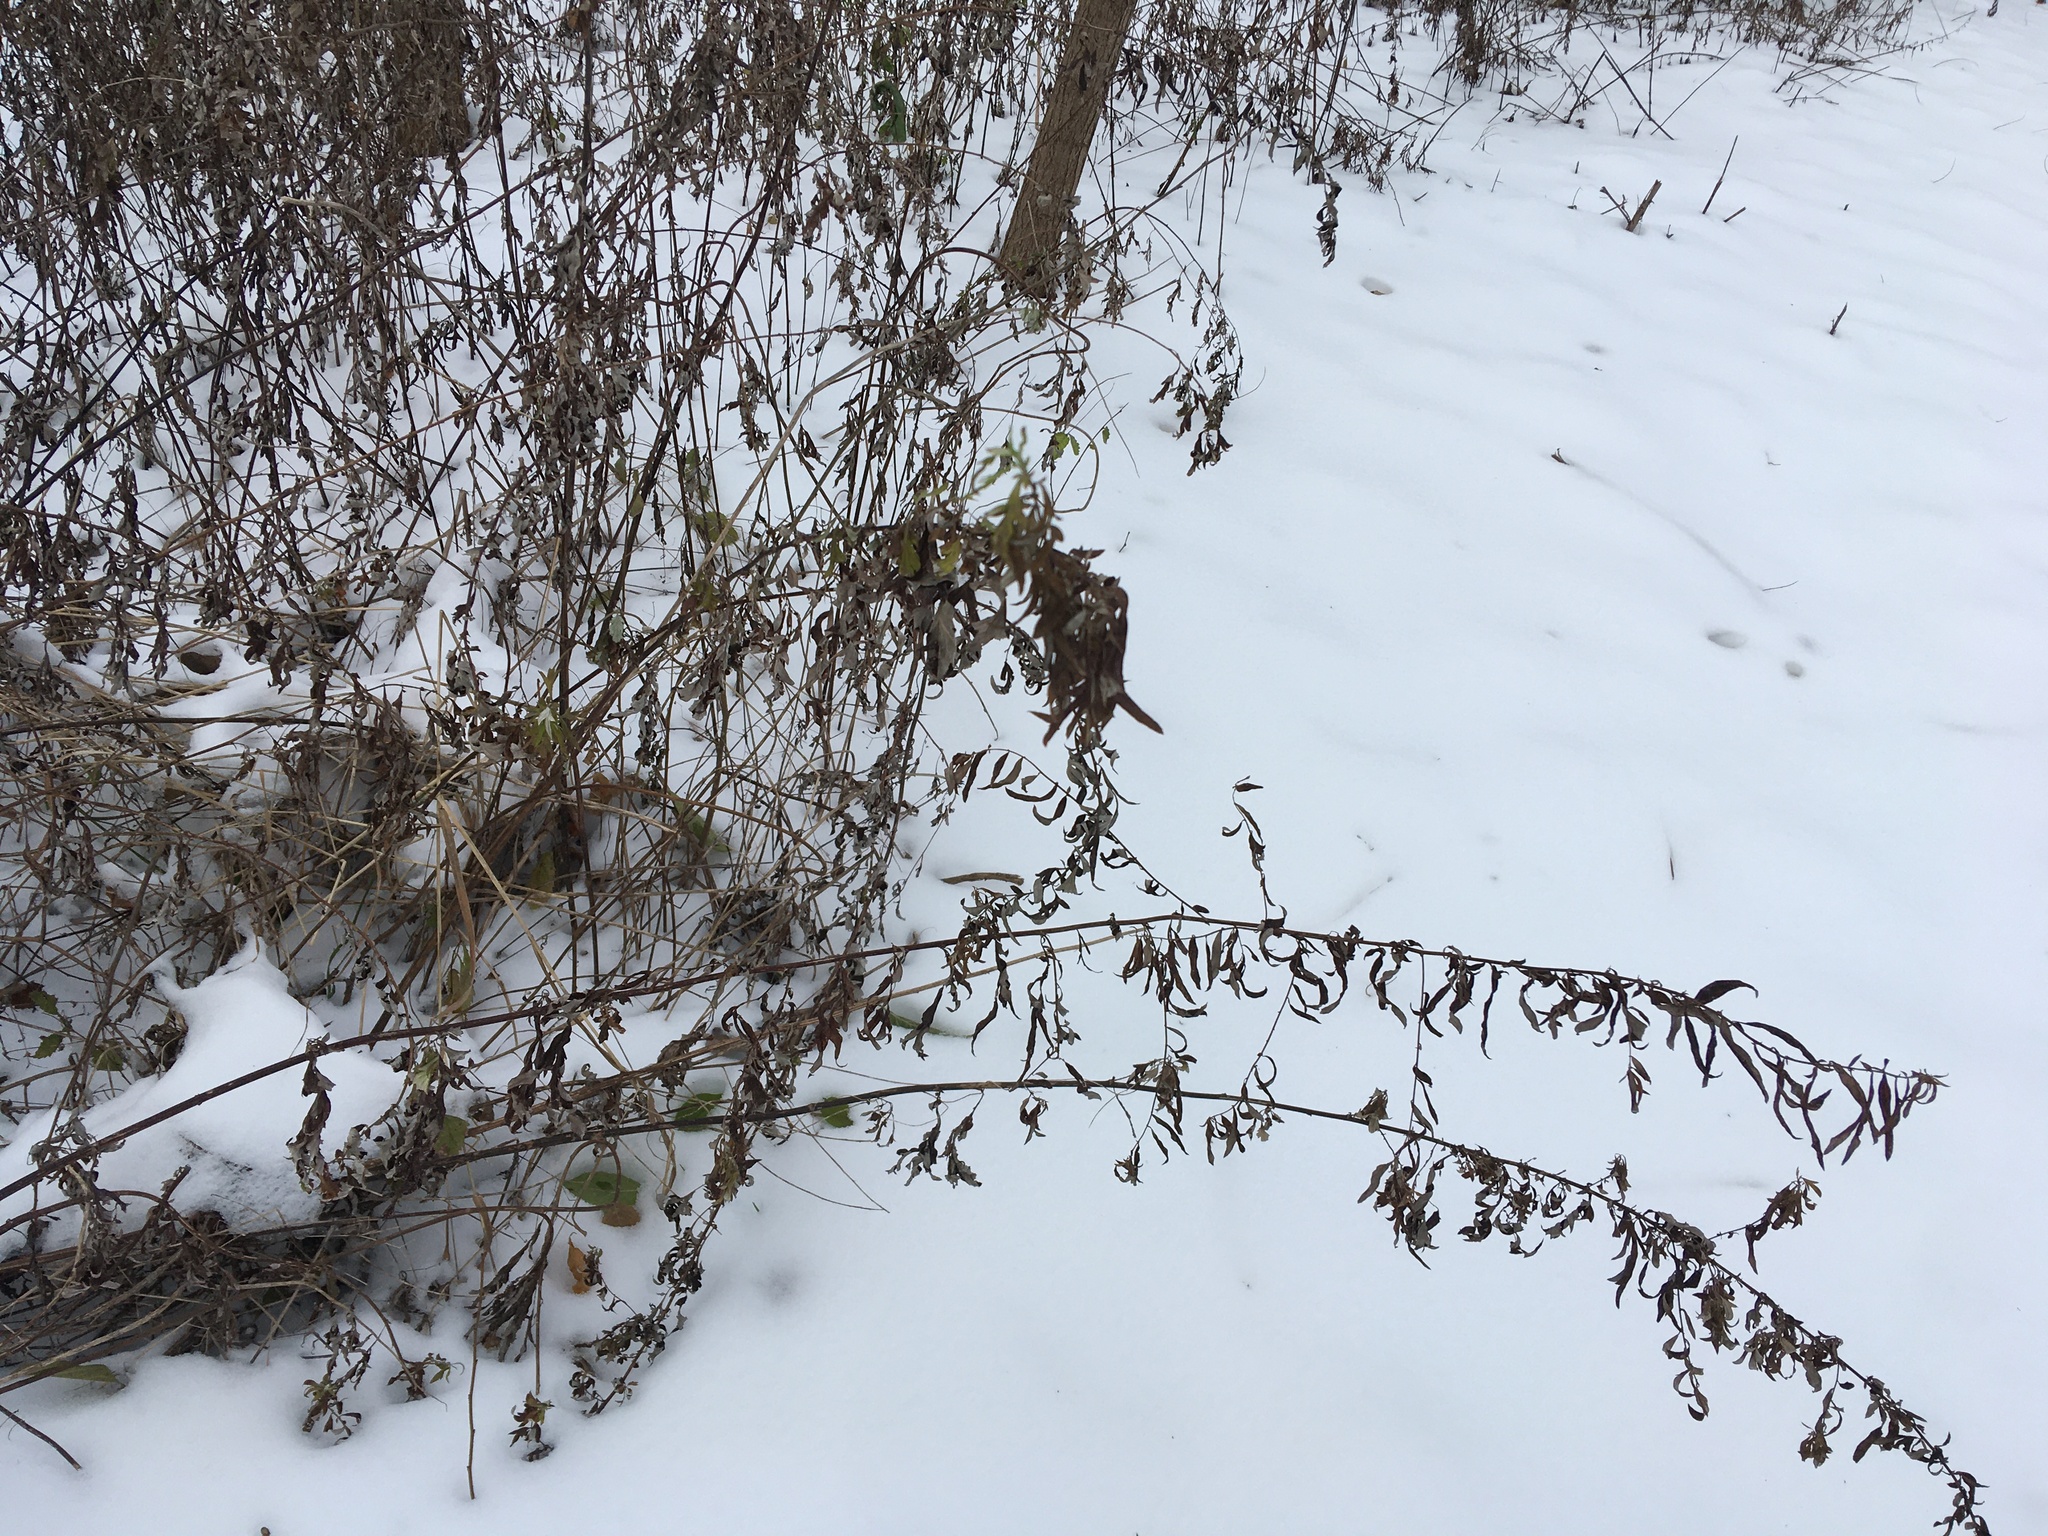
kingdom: Plantae
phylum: Tracheophyta
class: Magnoliopsida
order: Asterales
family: Asteraceae
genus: Artemisia
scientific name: Artemisia vulgaris
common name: Mugwort
